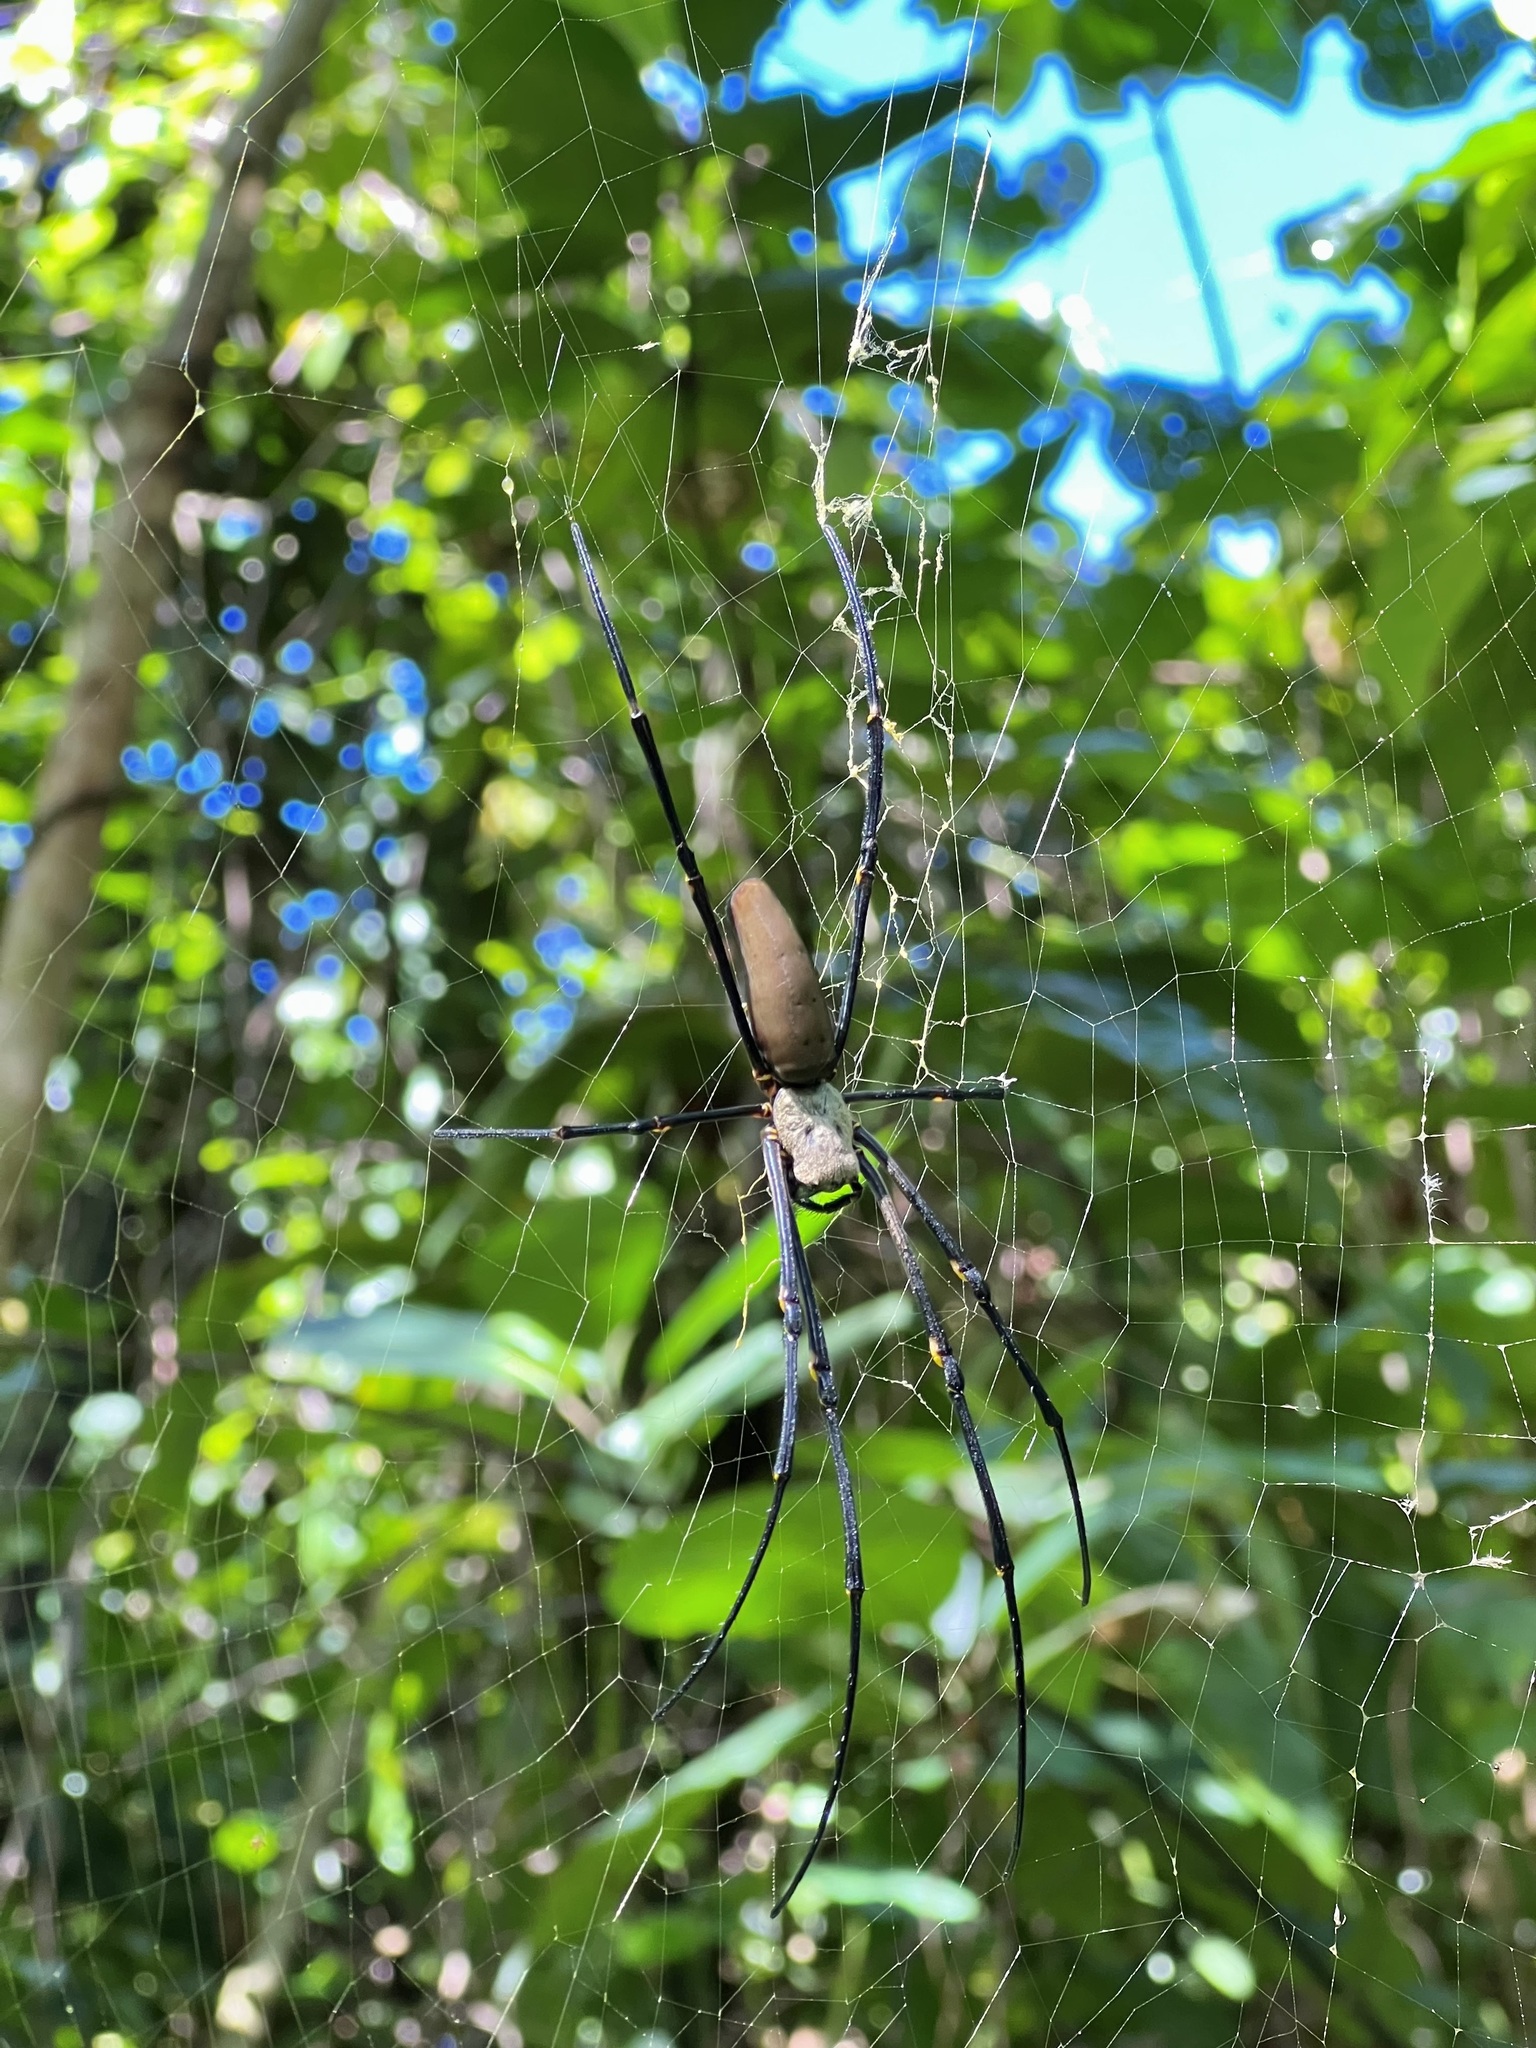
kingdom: Animalia
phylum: Arthropoda
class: Arachnida
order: Araneae
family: Araneidae
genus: Nephila
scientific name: Nephila pilipes
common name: Giant golden orb weaver
